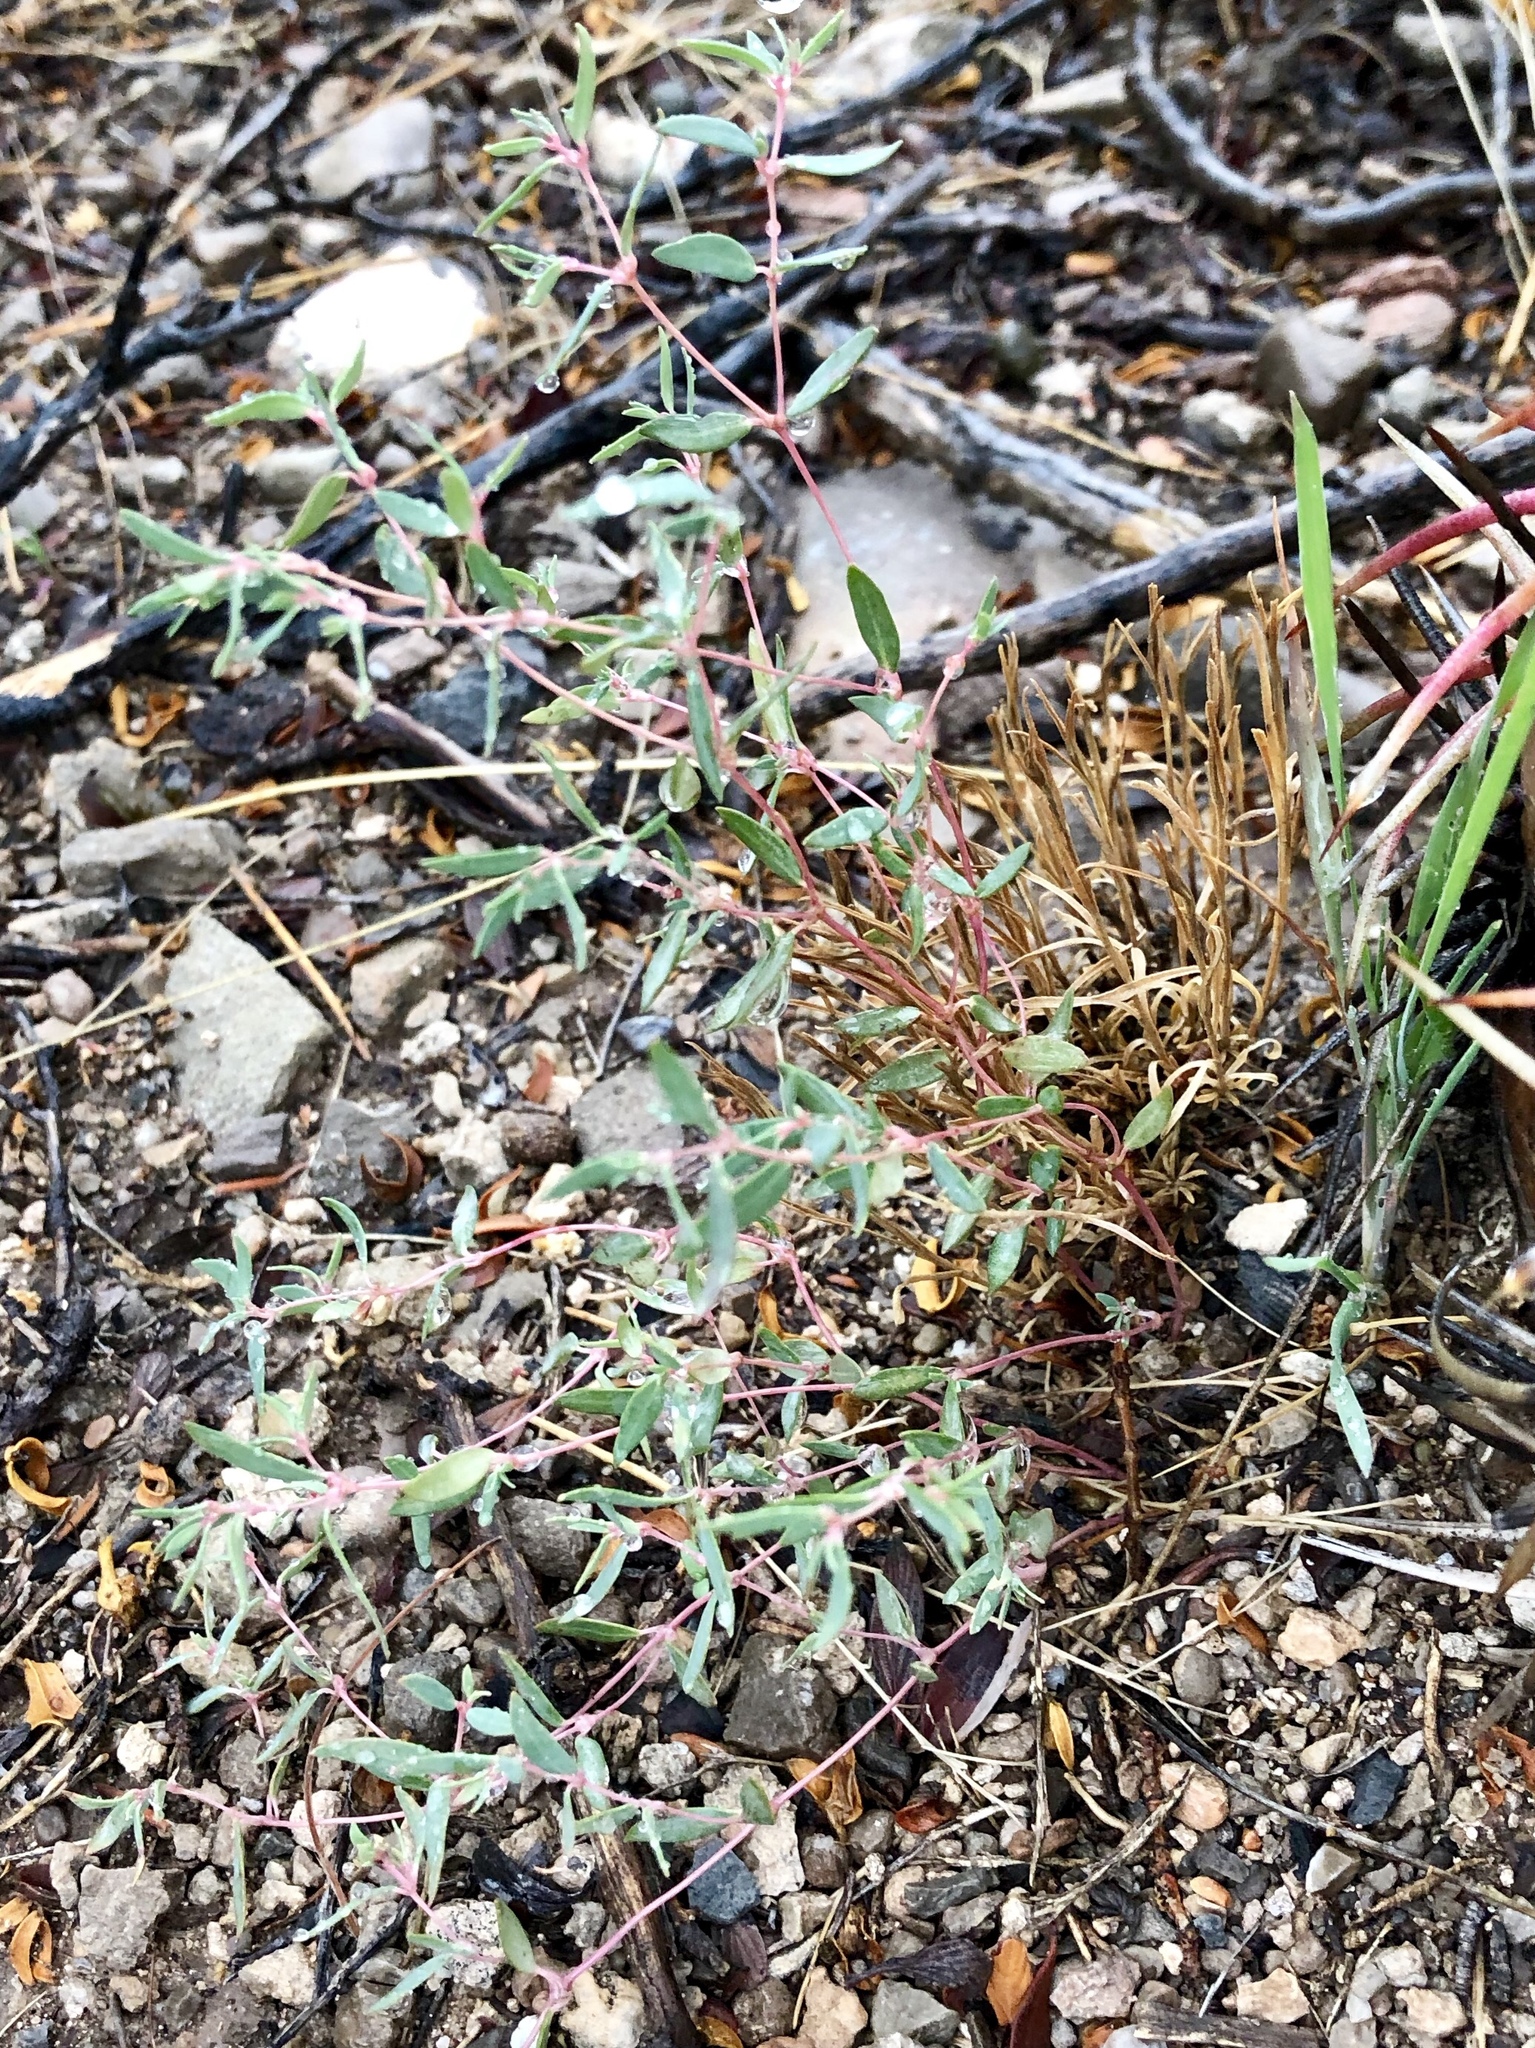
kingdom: Plantae
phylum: Tracheophyta
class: Magnoliopsida
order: Malpighiales
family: Euphorbiaceae
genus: Euphorbia
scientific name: Euphorbia chaetocalyx
